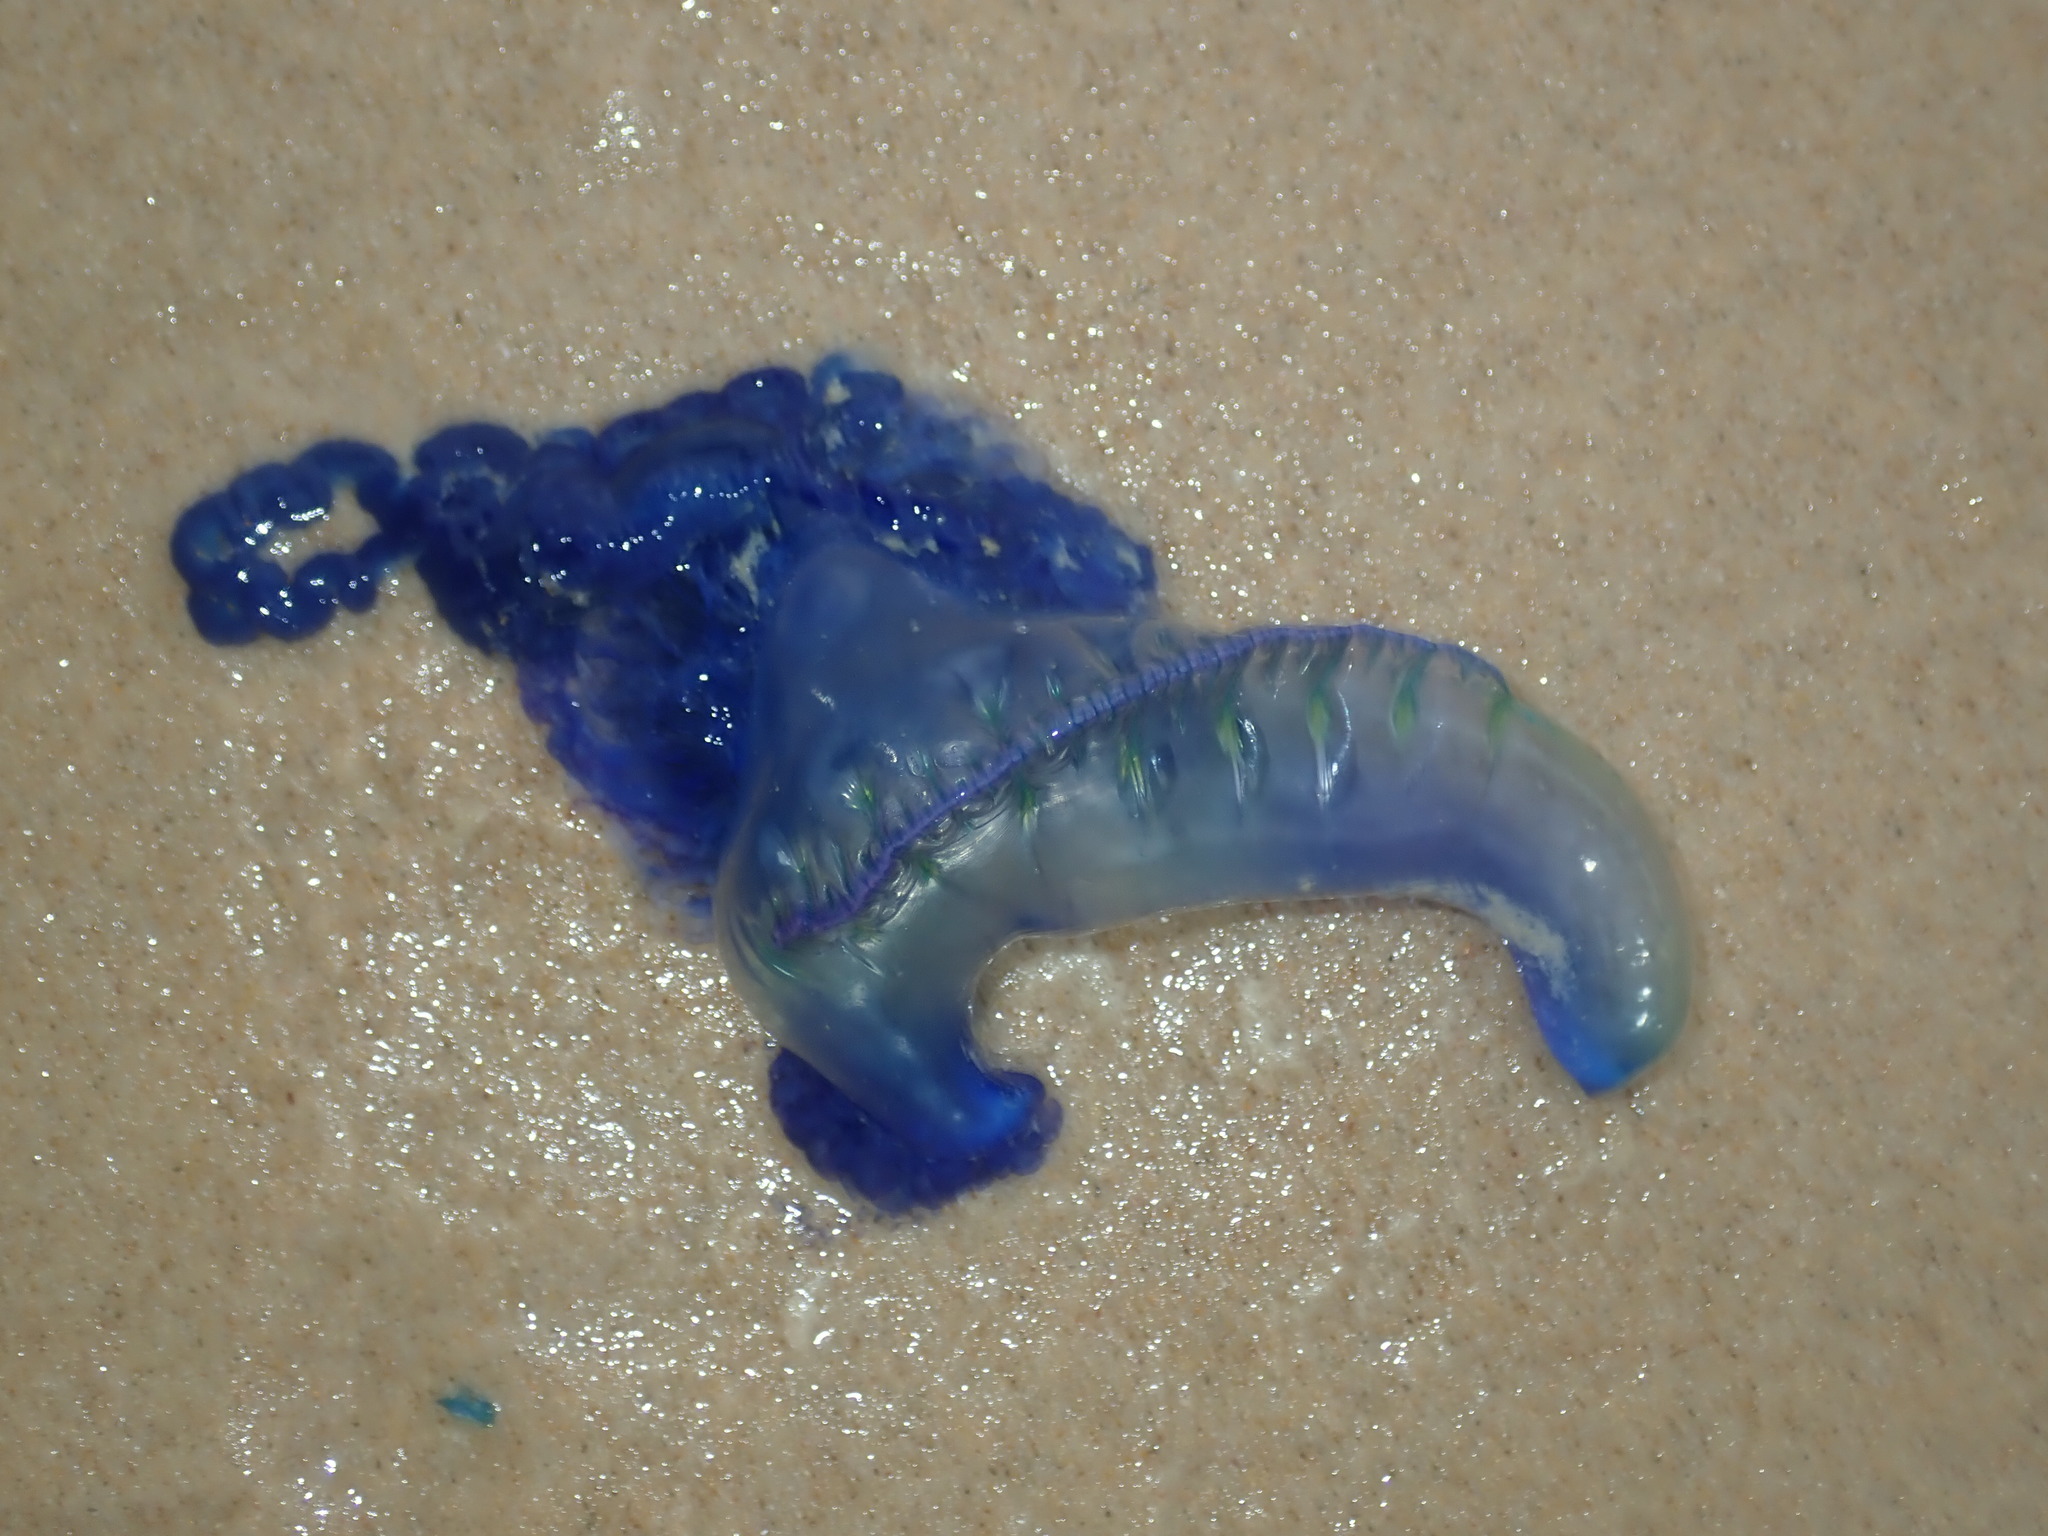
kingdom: Animalia
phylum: Cnidaria
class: Hydrozoa
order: Siphonophorae
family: Physaliidae
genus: Physalia
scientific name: Physalia physalis
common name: Portuguese man-of-war
